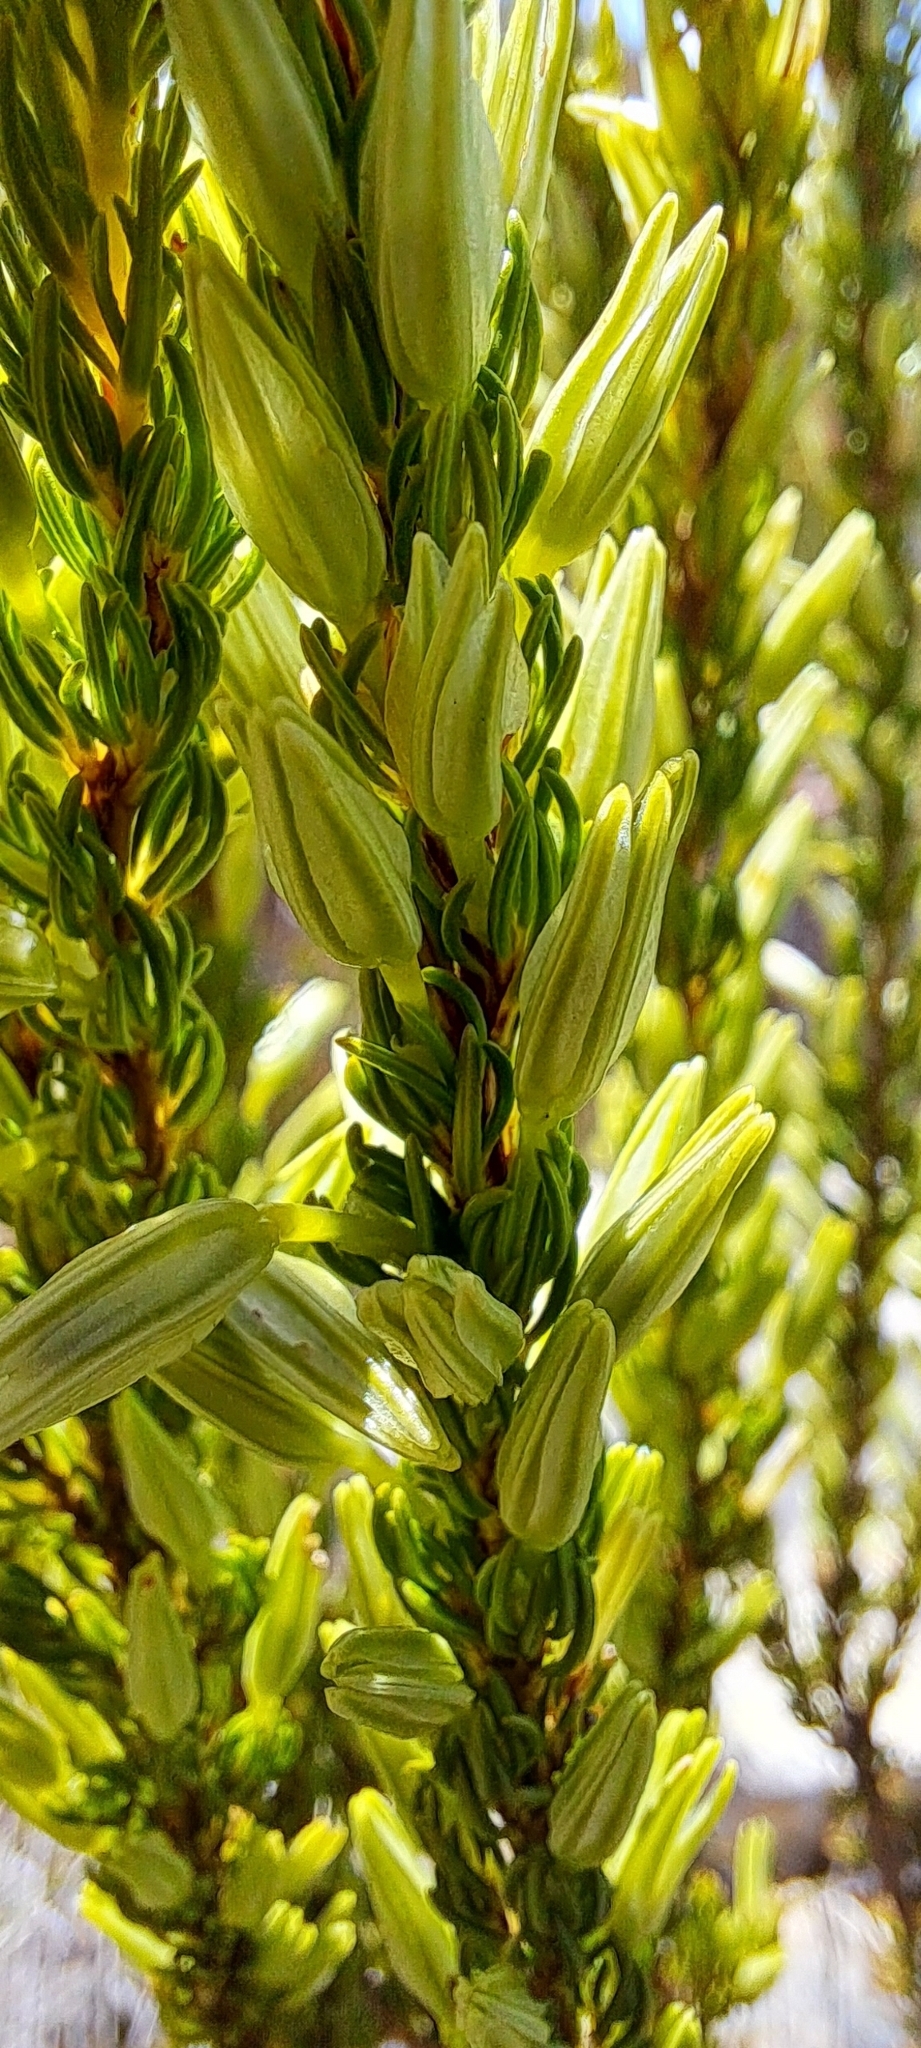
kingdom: Plantae
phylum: Tracheophyta
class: Magnoliopsida
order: Ericales
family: Ericaceae
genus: Erica
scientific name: Erica plukenetii
